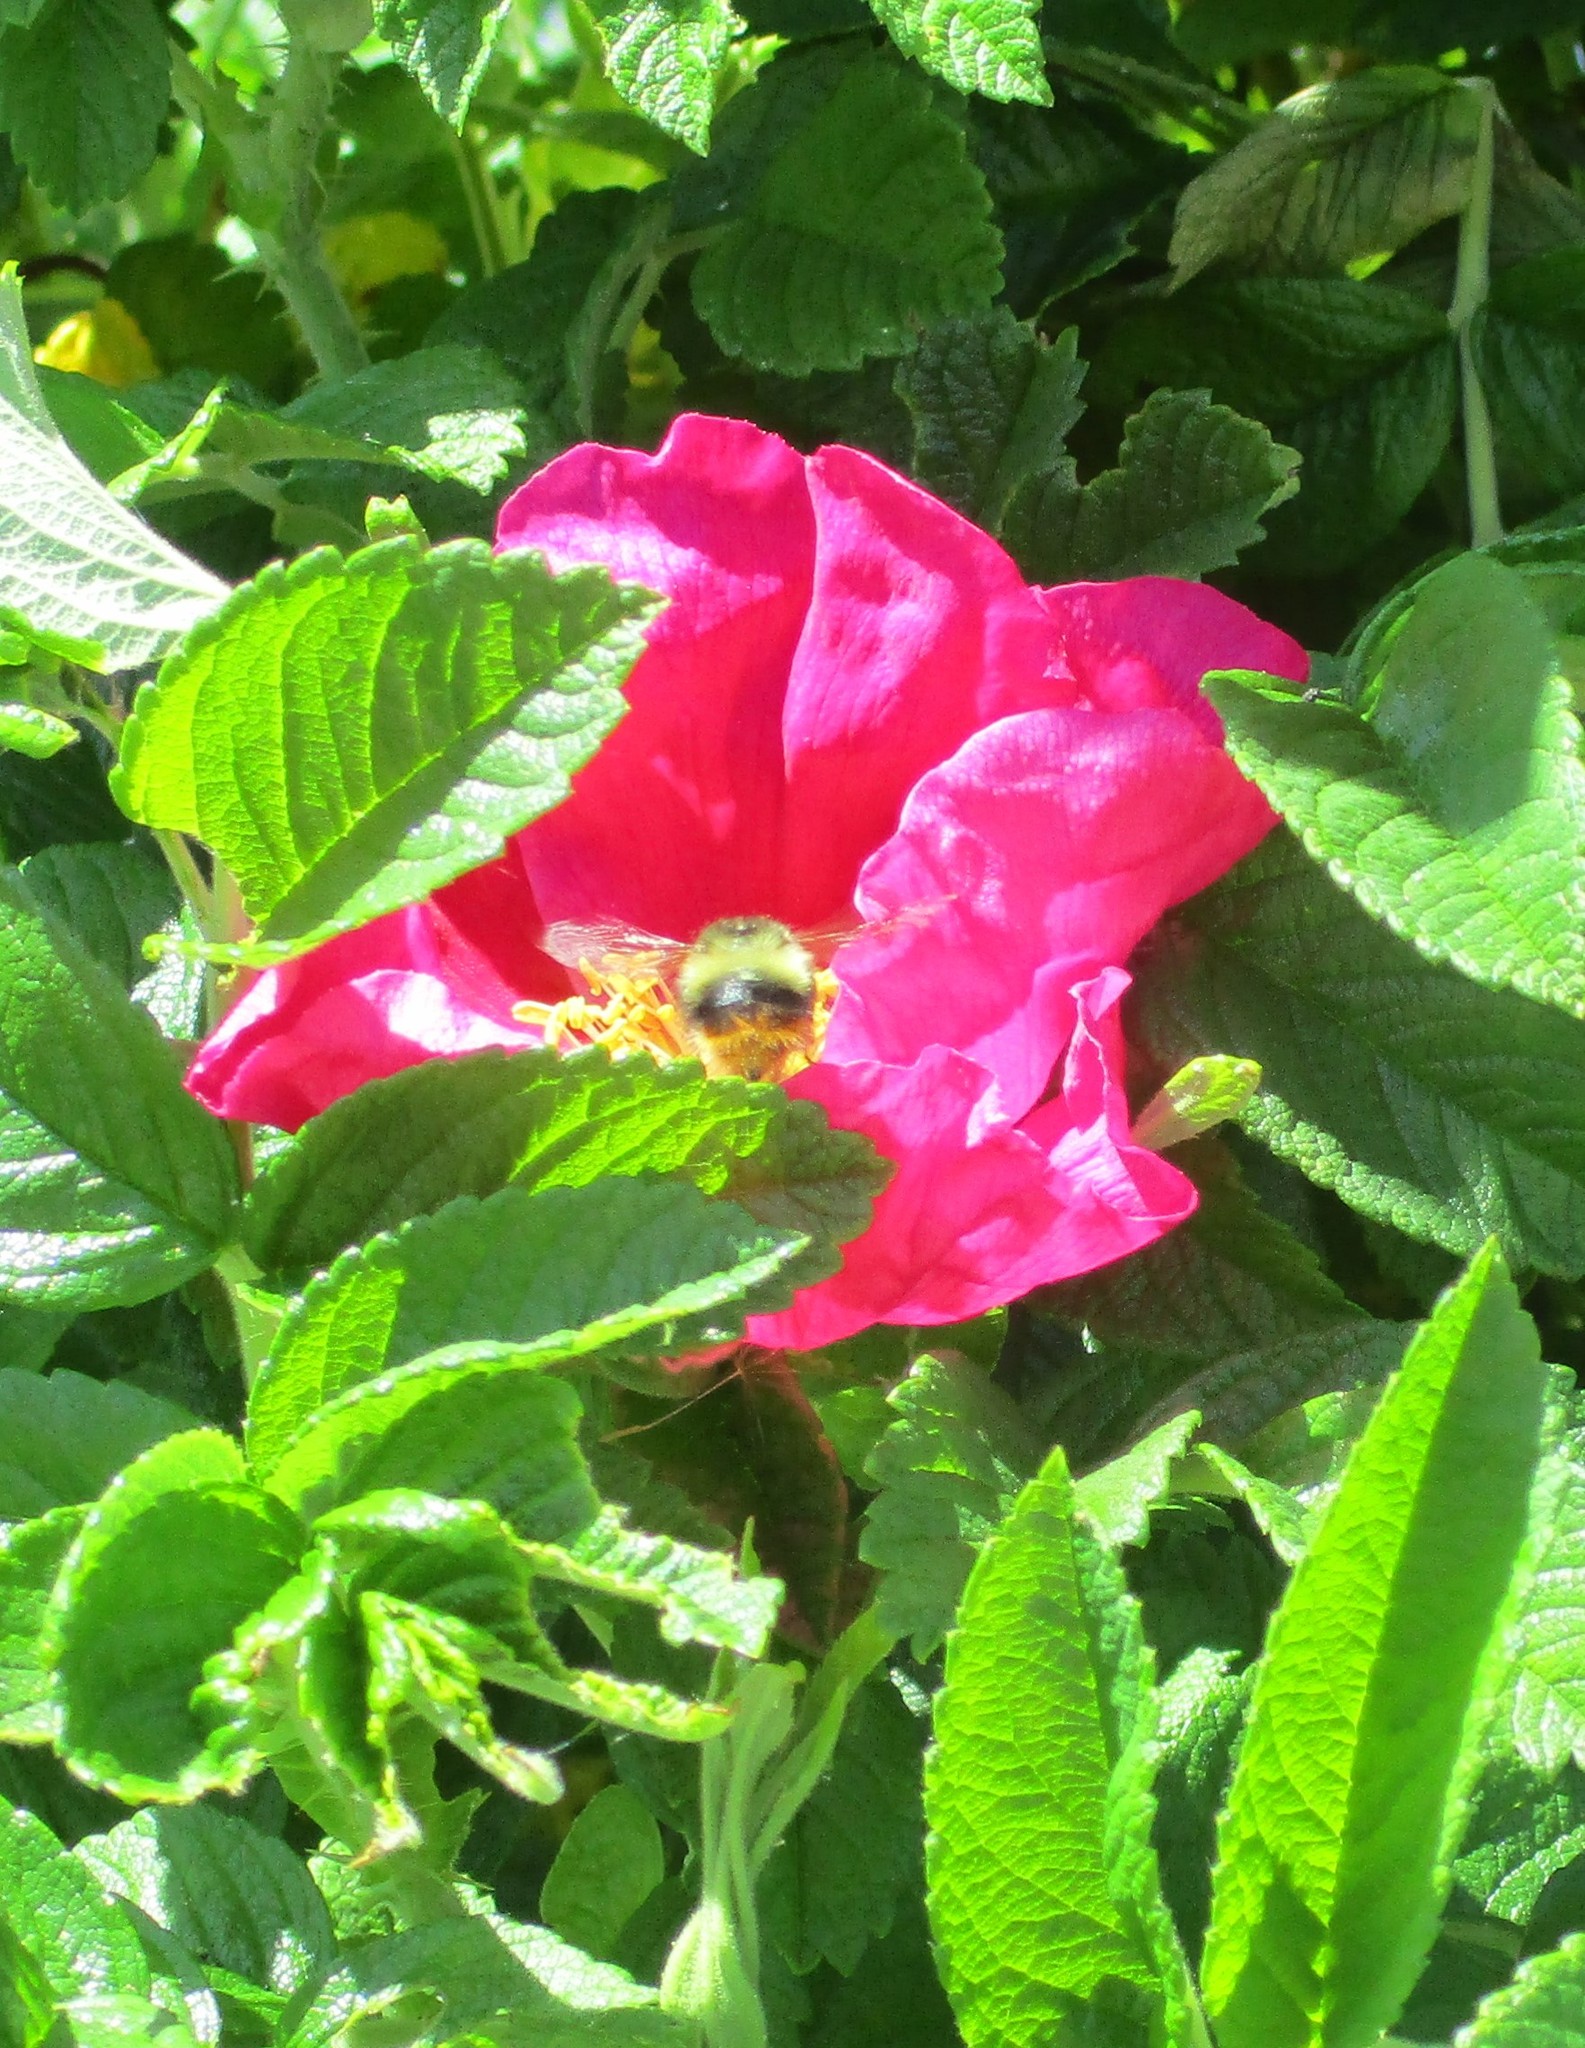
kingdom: Animalia
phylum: Arthropoda
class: Insecta
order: Hymenoptera
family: Apidae
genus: Bombus
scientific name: Bombus mixtus
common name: Fuzzy-horned bumble bee
